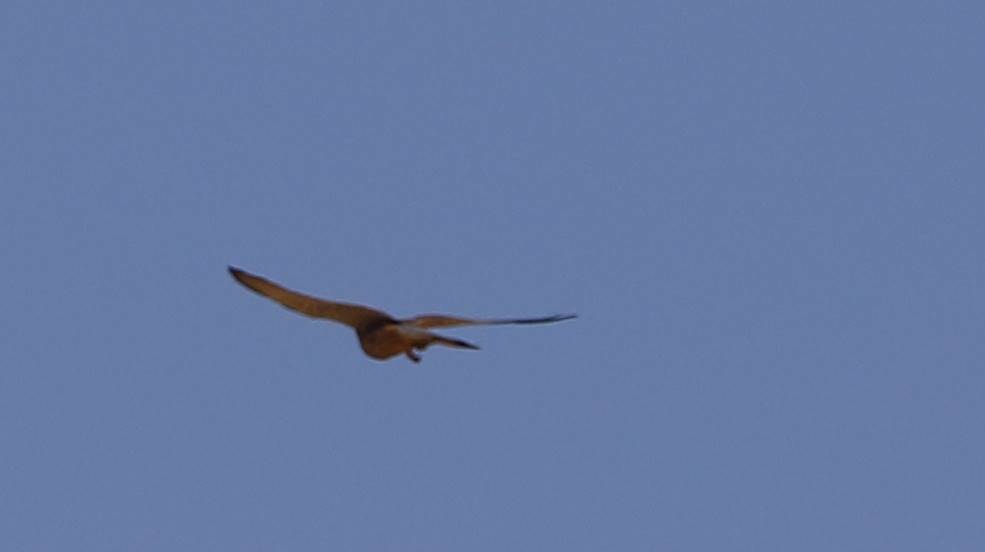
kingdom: Animalia
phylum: Chordata
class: Aves
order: Falconiformes
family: Falconidae
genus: Falco
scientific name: Falco tinnunculus
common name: Common kestrel
